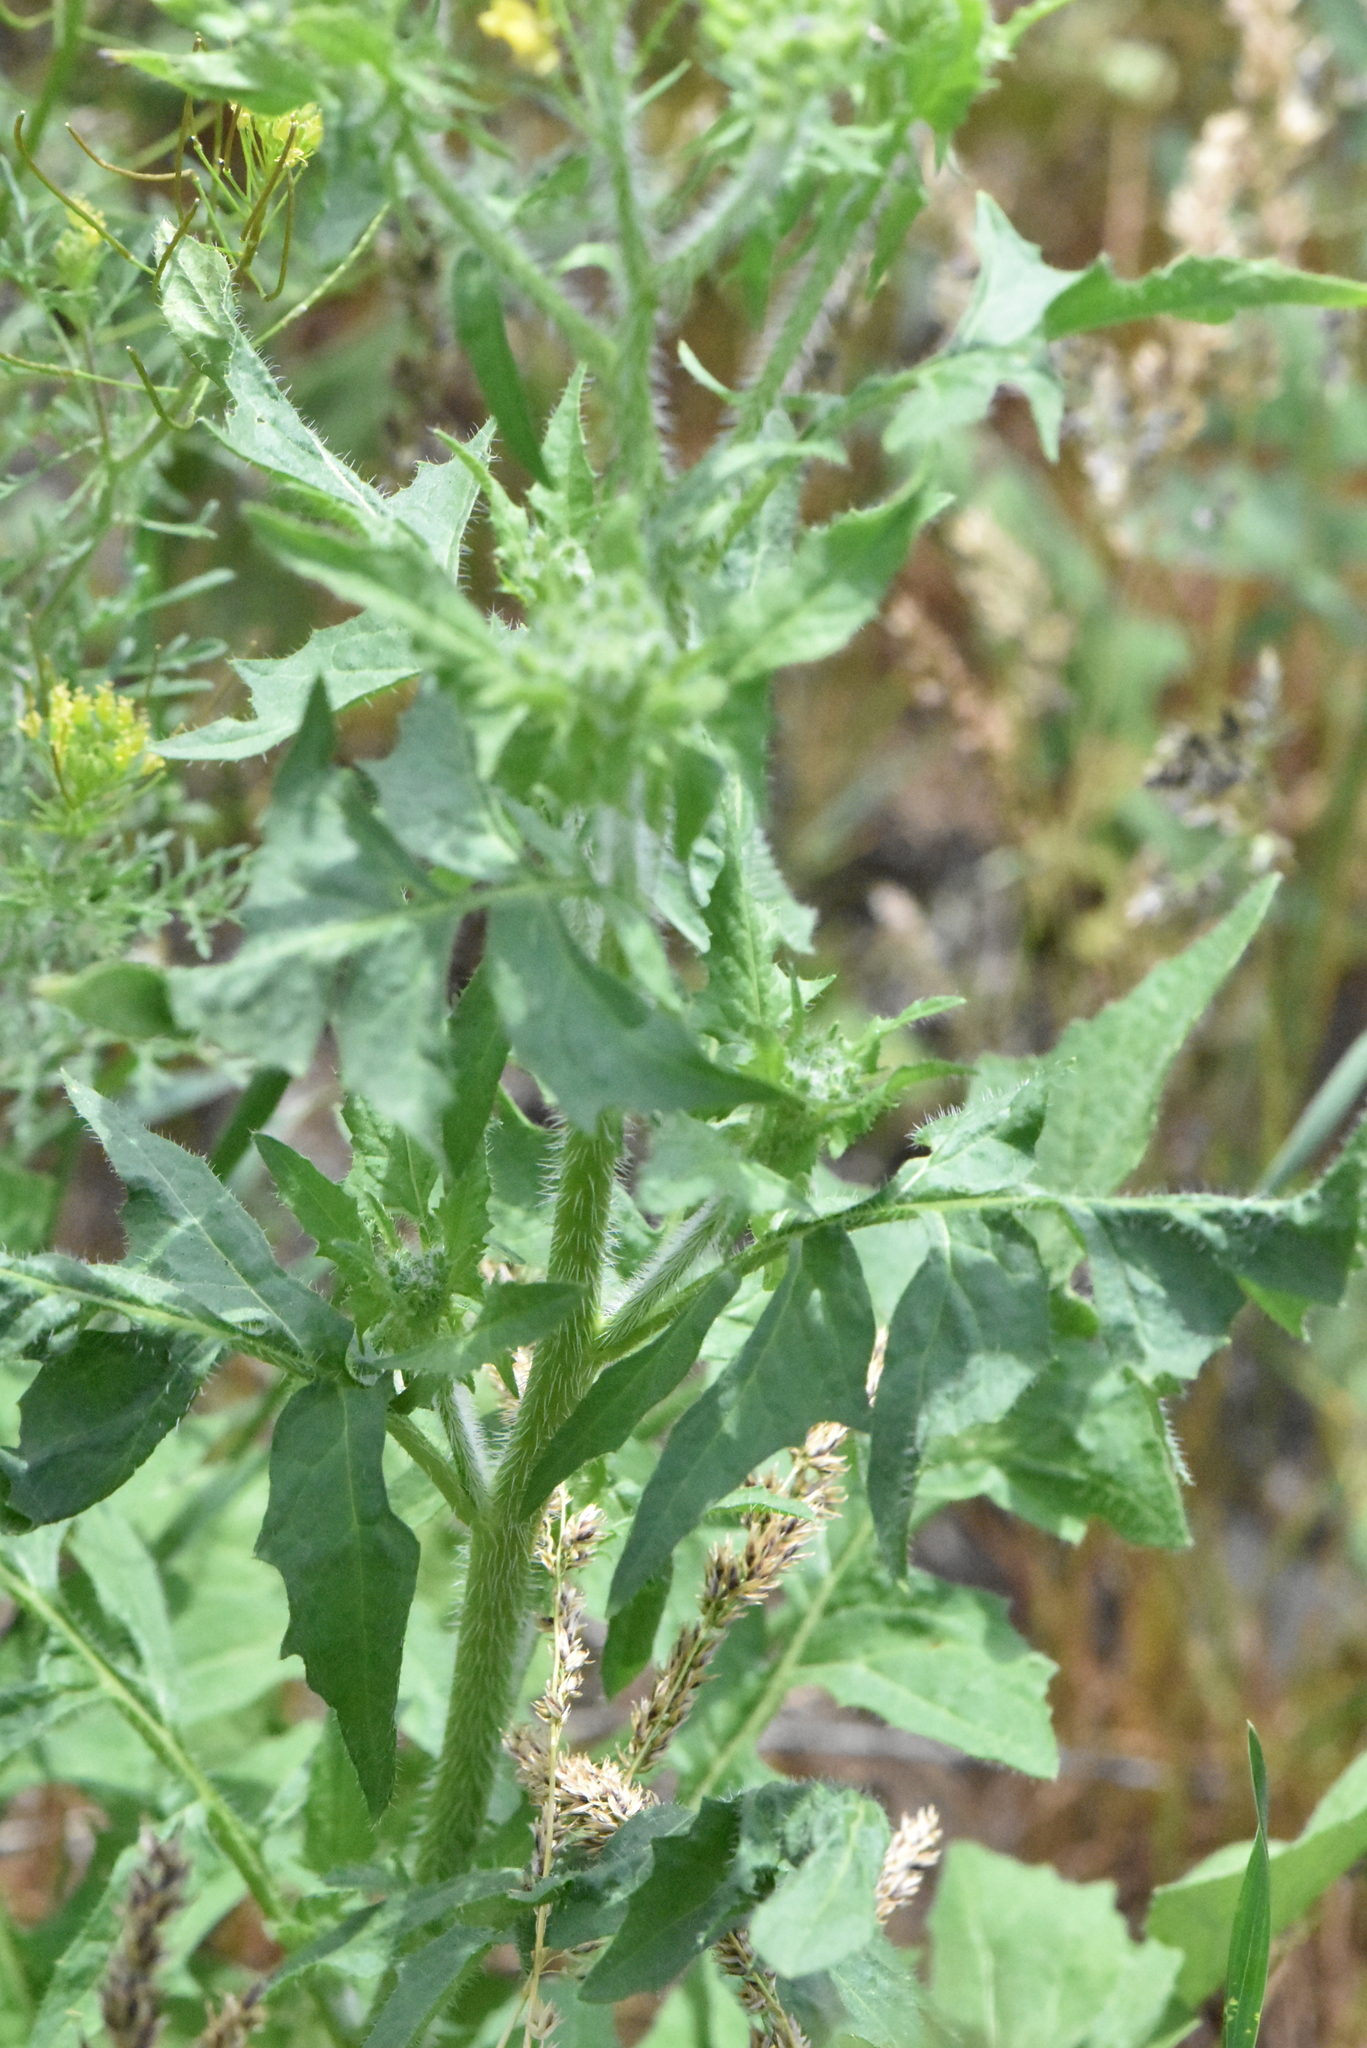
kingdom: Plantae
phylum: Tracheophyta
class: Magnoliopsida
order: Brassicales
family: Brassicaceae
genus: Sisymbrium
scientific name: Sisymbrium loeselii
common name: False london-rocket
